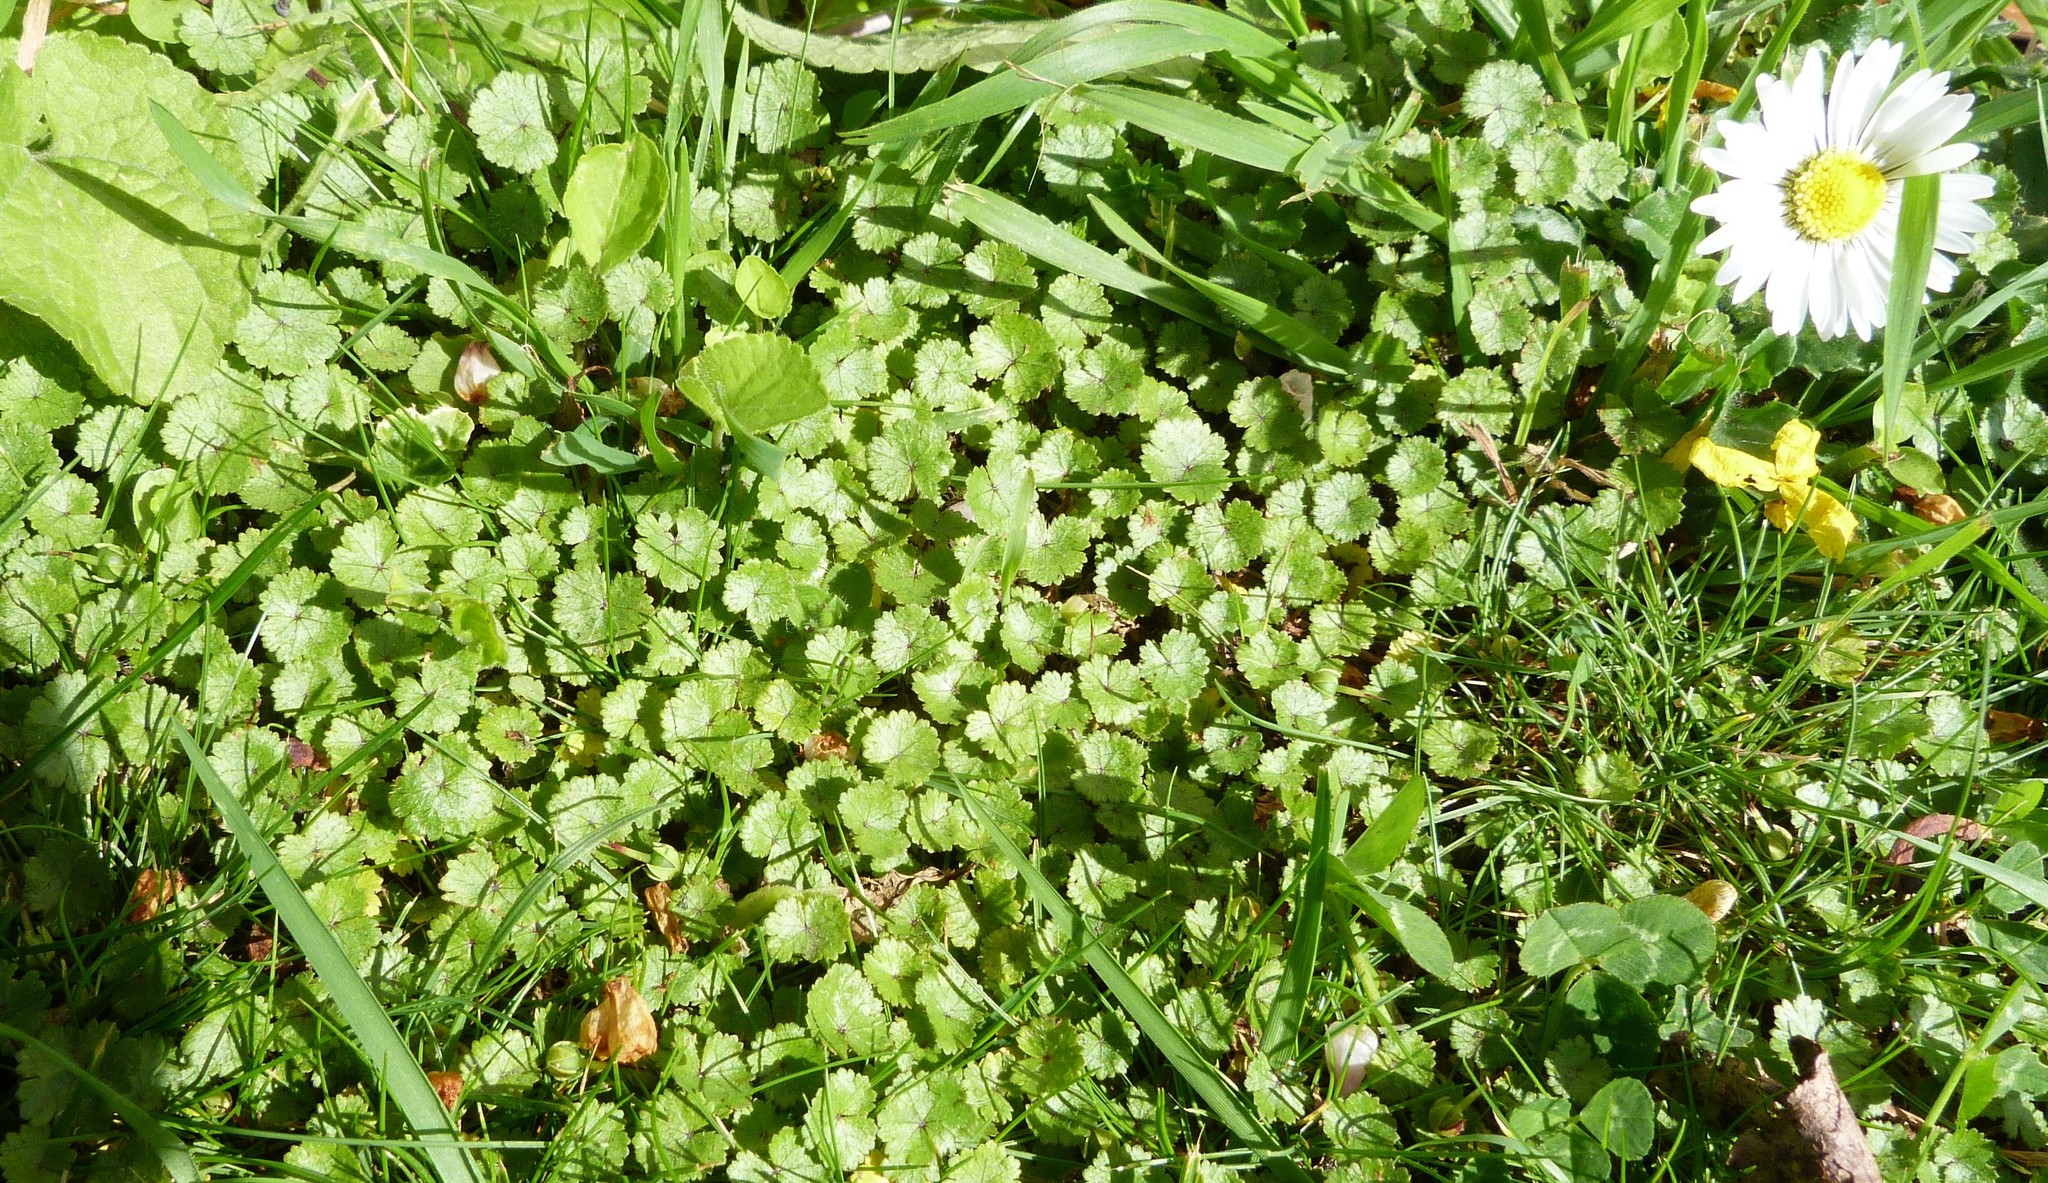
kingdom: Plantae
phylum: Tracheophyta
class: Magnoliopsida
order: Apiales
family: Araliaceae
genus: Hydrocotyle
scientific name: Hydrocotyle microphylla
